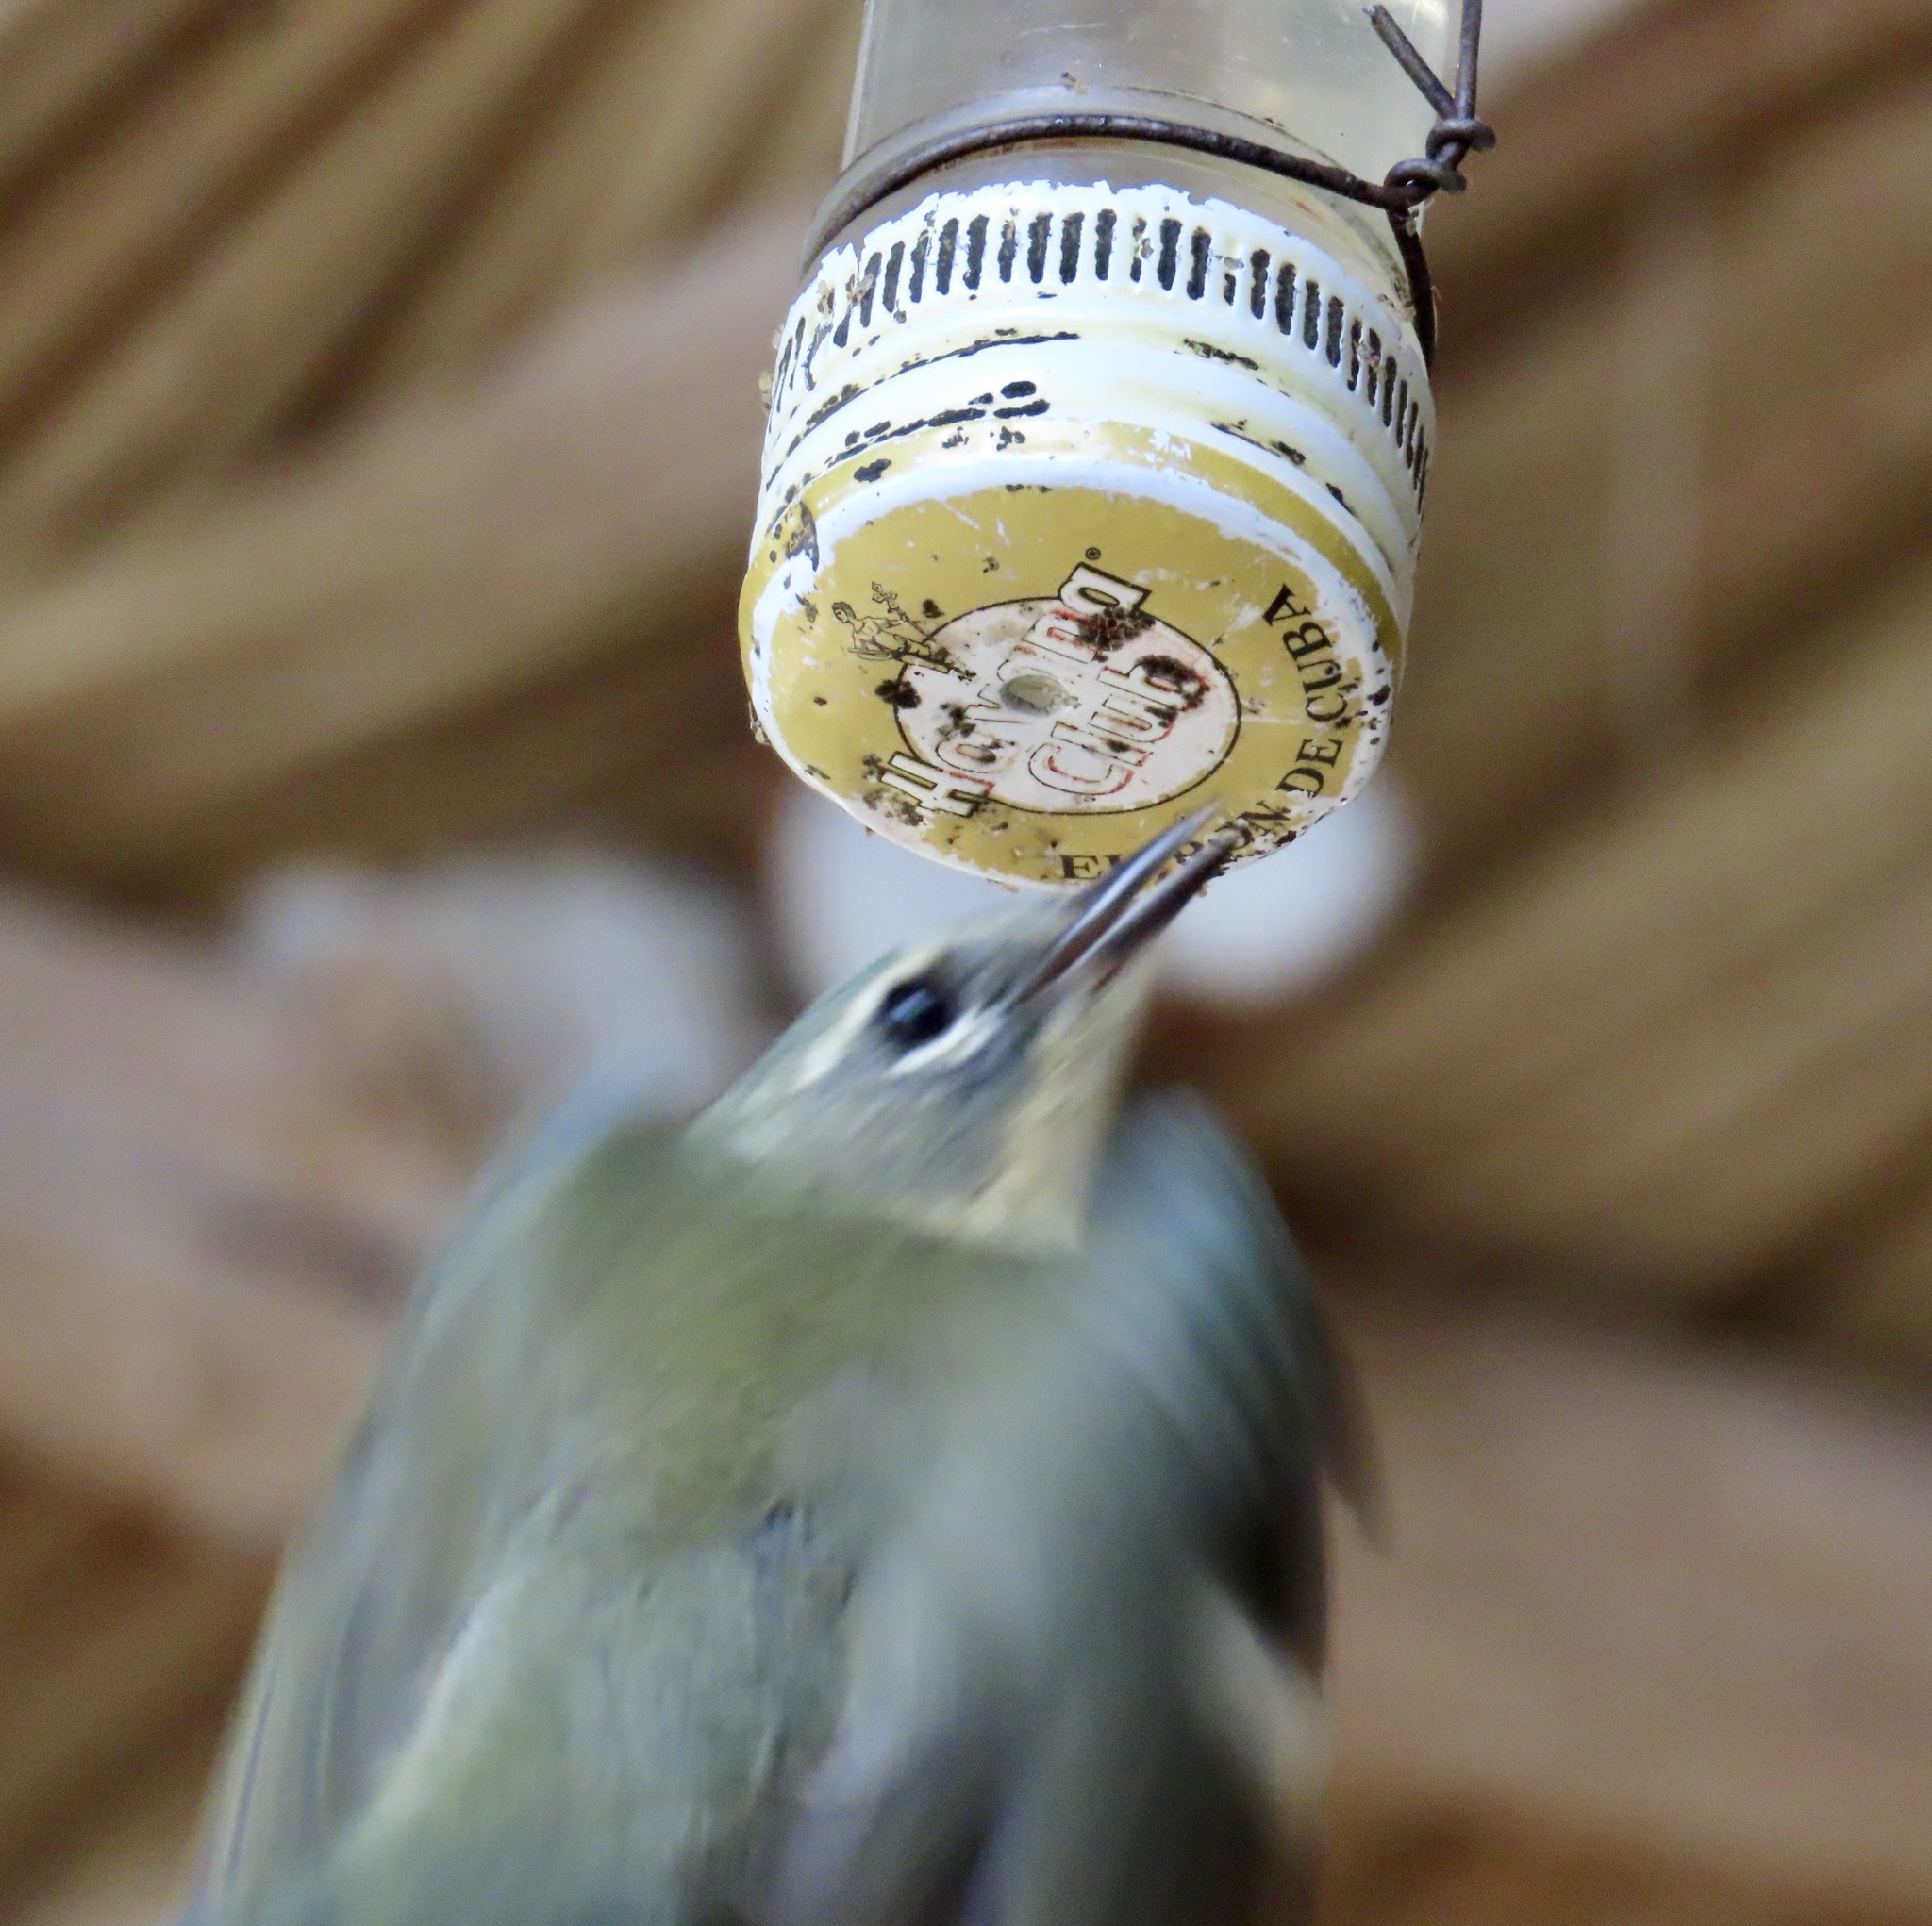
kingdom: Animalia
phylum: Chordata
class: Aves
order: Passeriformes
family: Parulidae
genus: Setophaga
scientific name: Setophaga caerulescens
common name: Black-throated blue warbler
